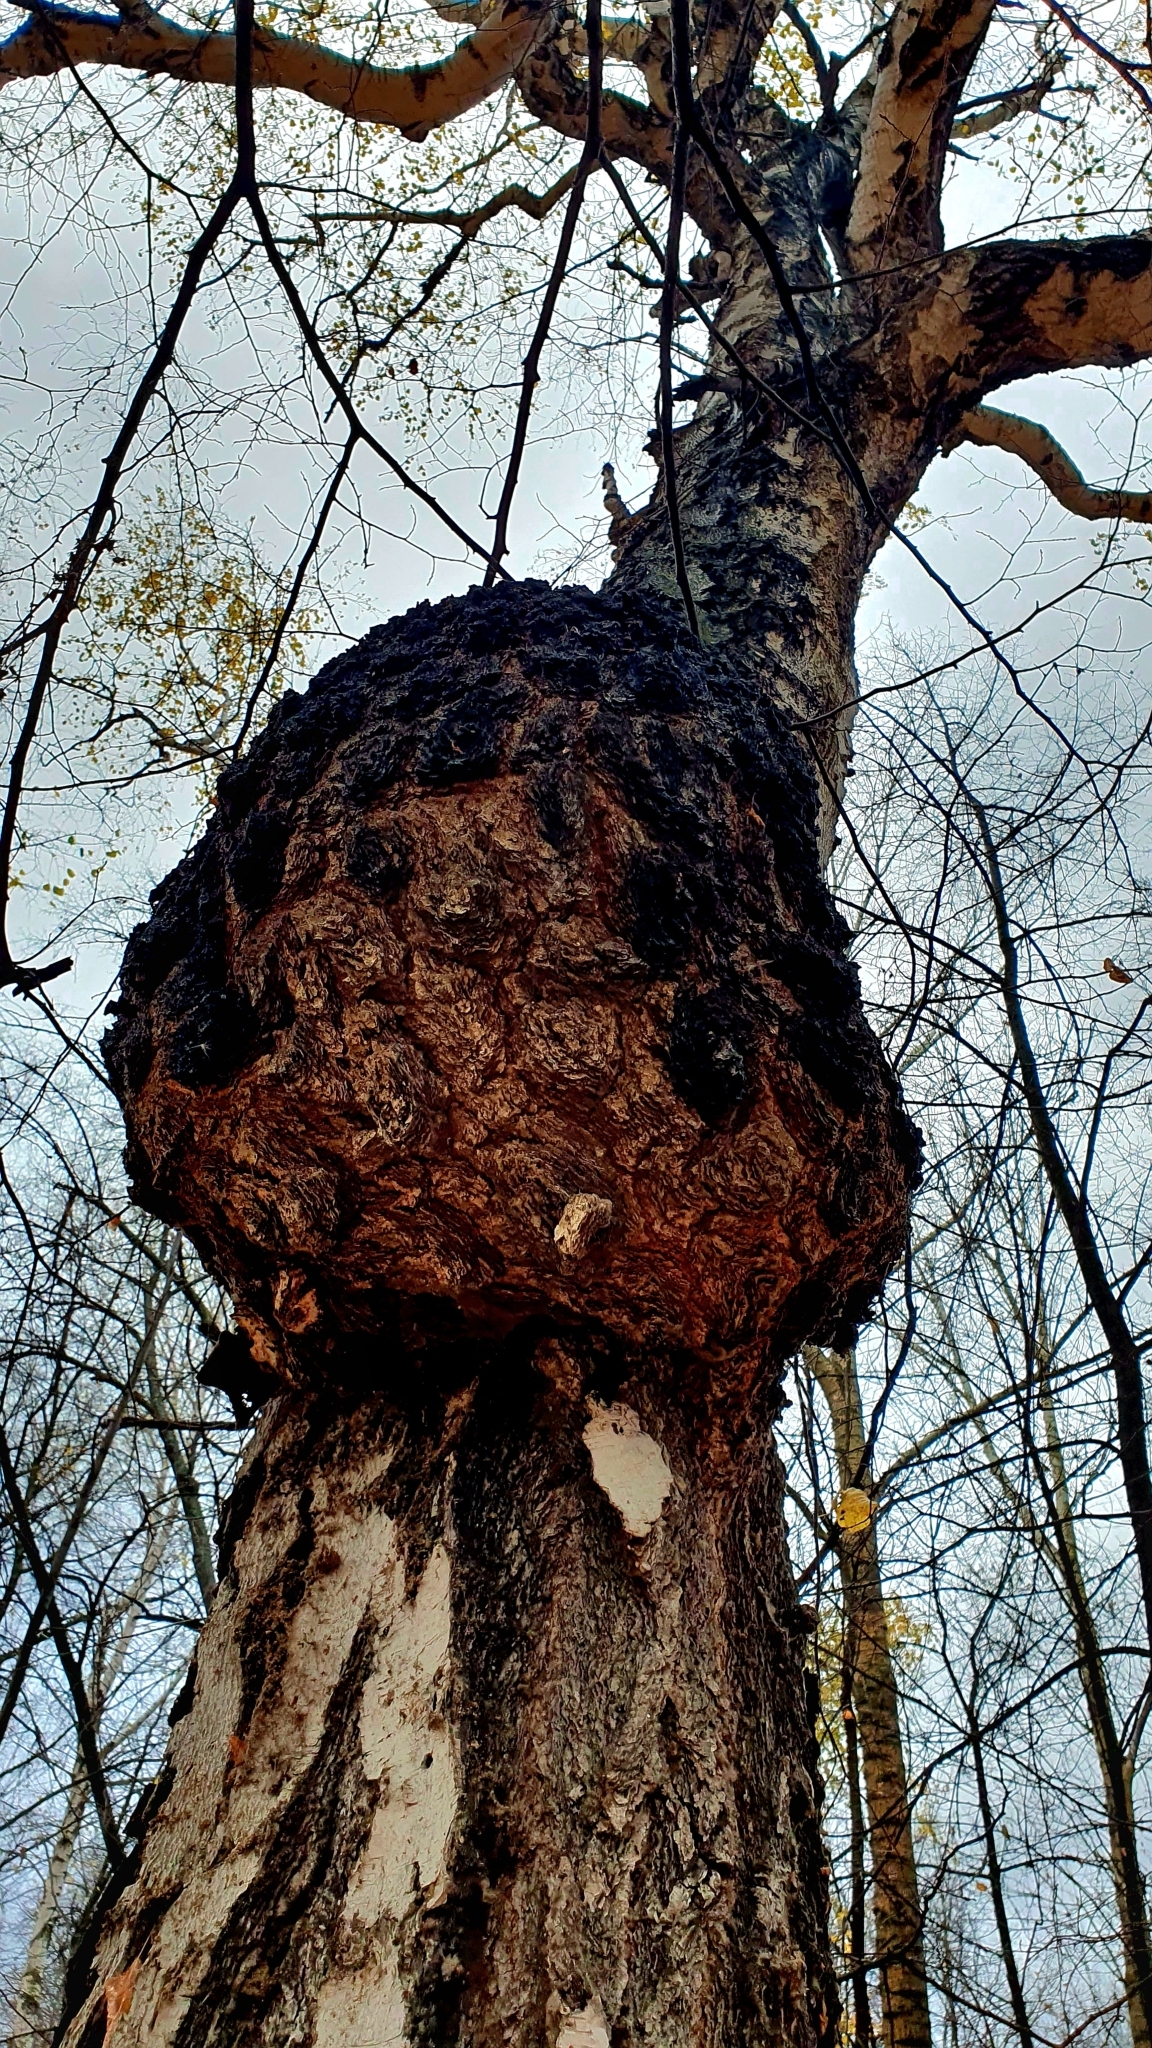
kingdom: Bacteria
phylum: Proteobacteria
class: Alphaproteobacteria
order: Rhizobiales
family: Rhizobiaceae
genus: Rhizobium
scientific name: Rhizobium Agrobacterium radiobacter
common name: Bacterial crown gall
